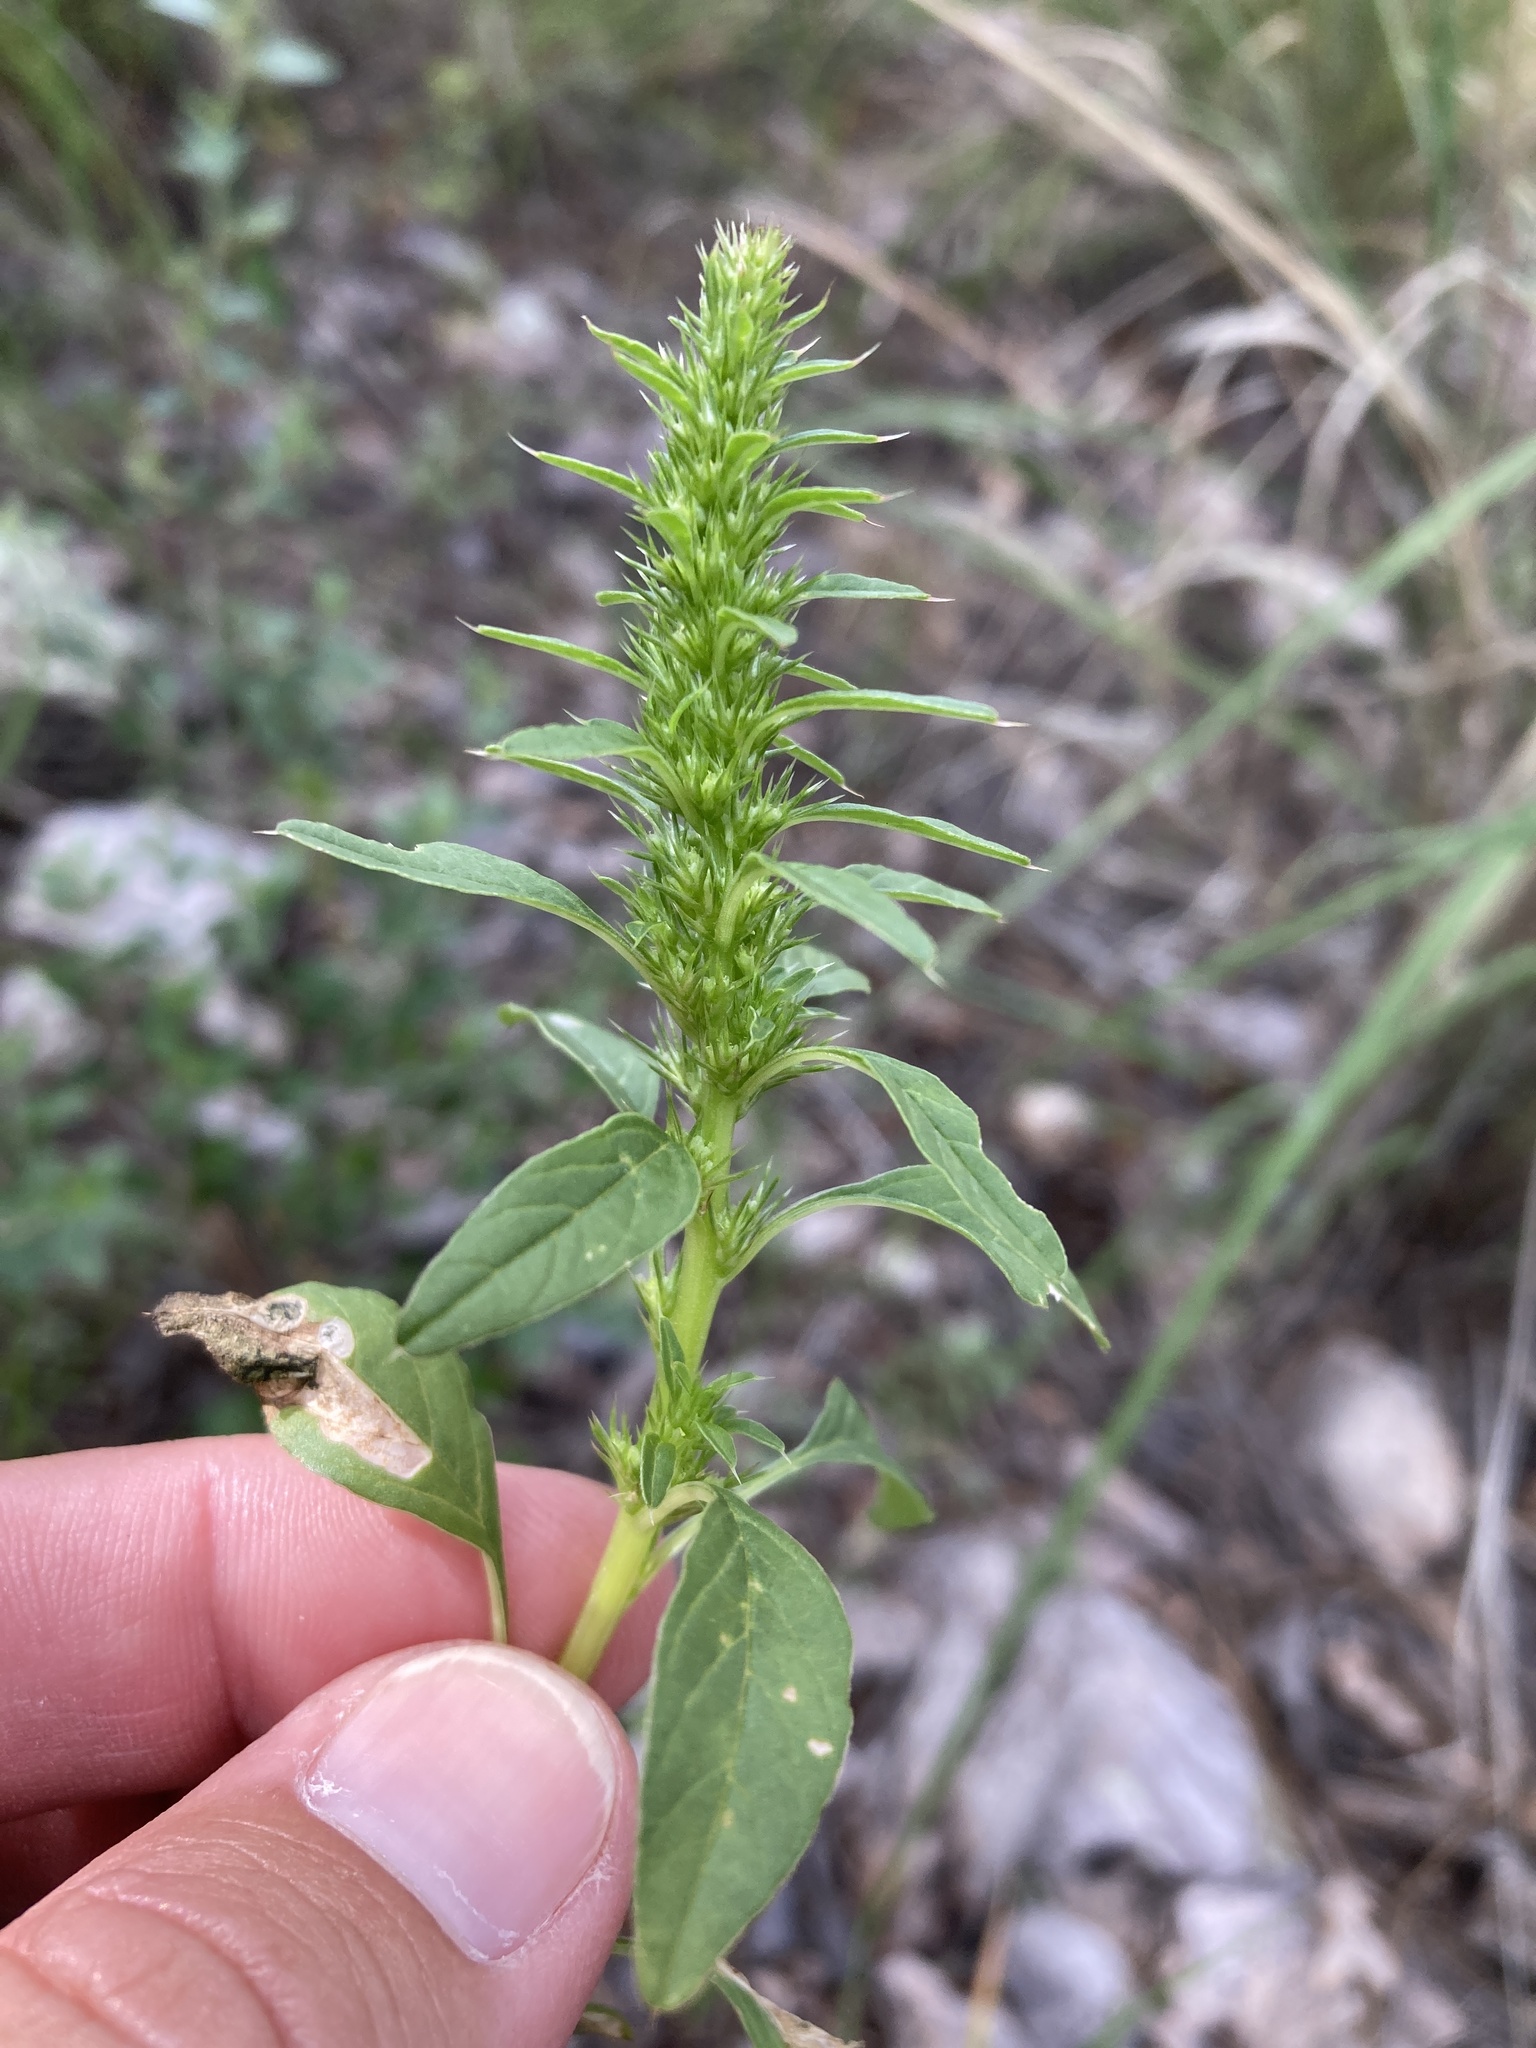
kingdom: Plantae
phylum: Tracheophyta
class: Magnoliopsida
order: Caryophyllales
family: Amaranthaceae
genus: Amaranthus
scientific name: Amaranthus torreyi
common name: Bigelow's amaranth
